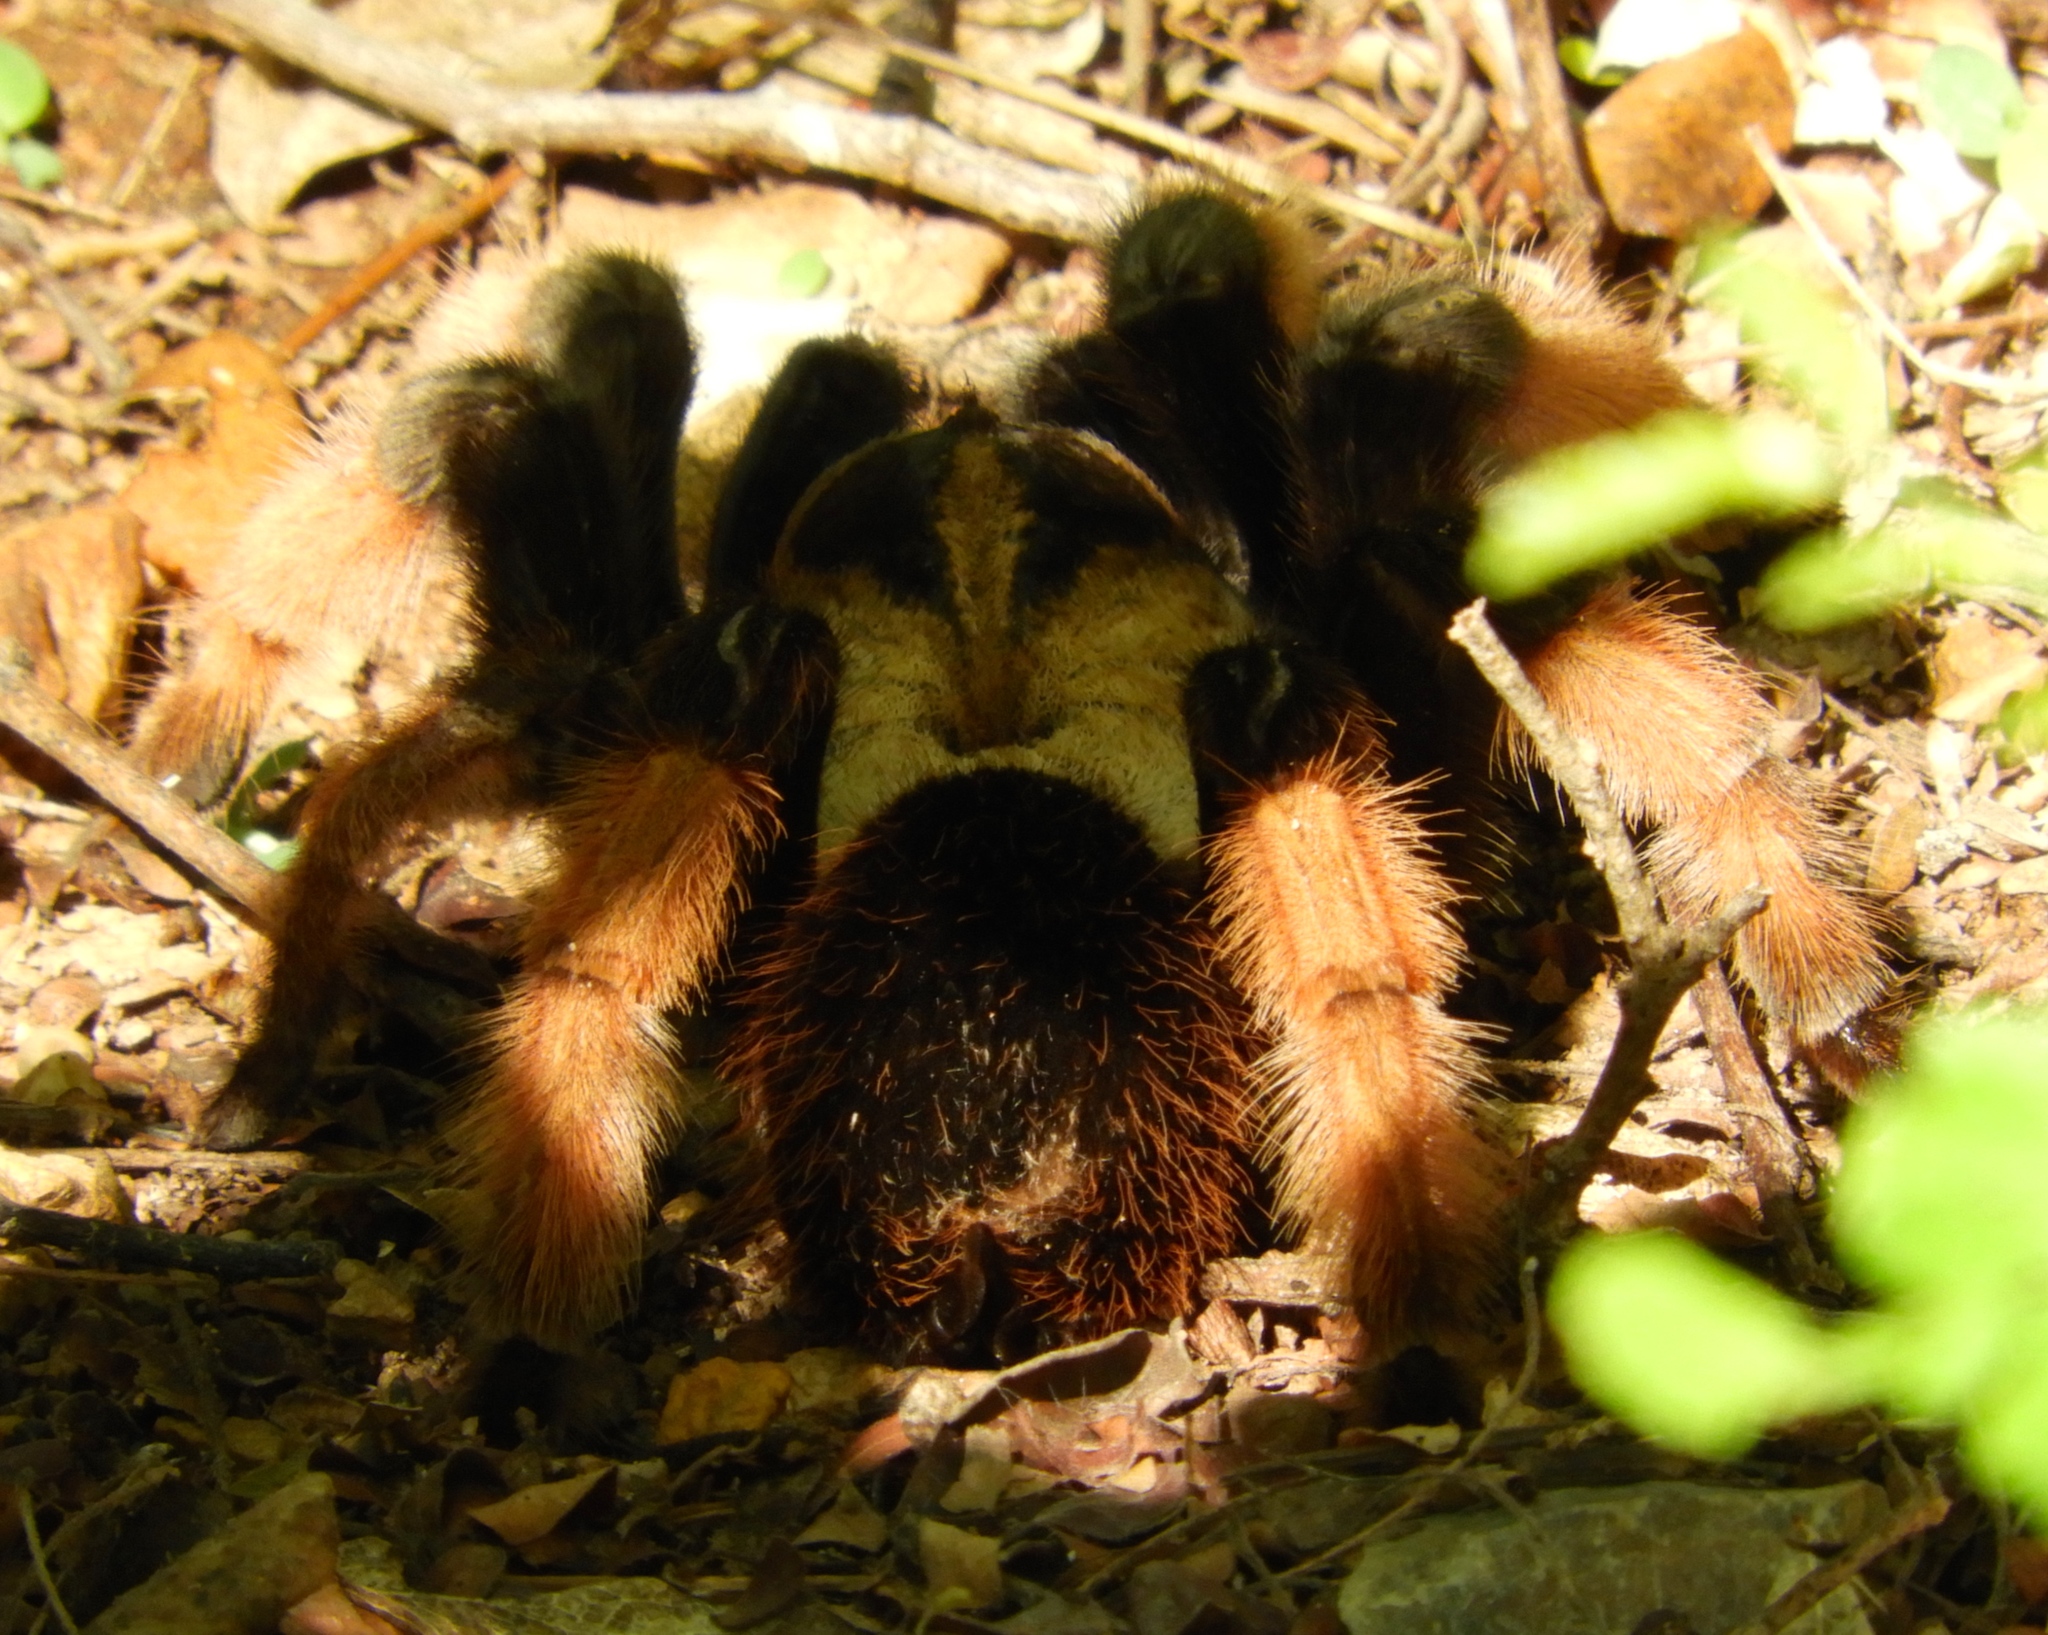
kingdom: Animalia
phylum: Arthropoda
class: Arachnida
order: Araneae
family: Theraphosidae
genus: Brachypelma
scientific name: Brachypelma emilia
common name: Mexican redleg
